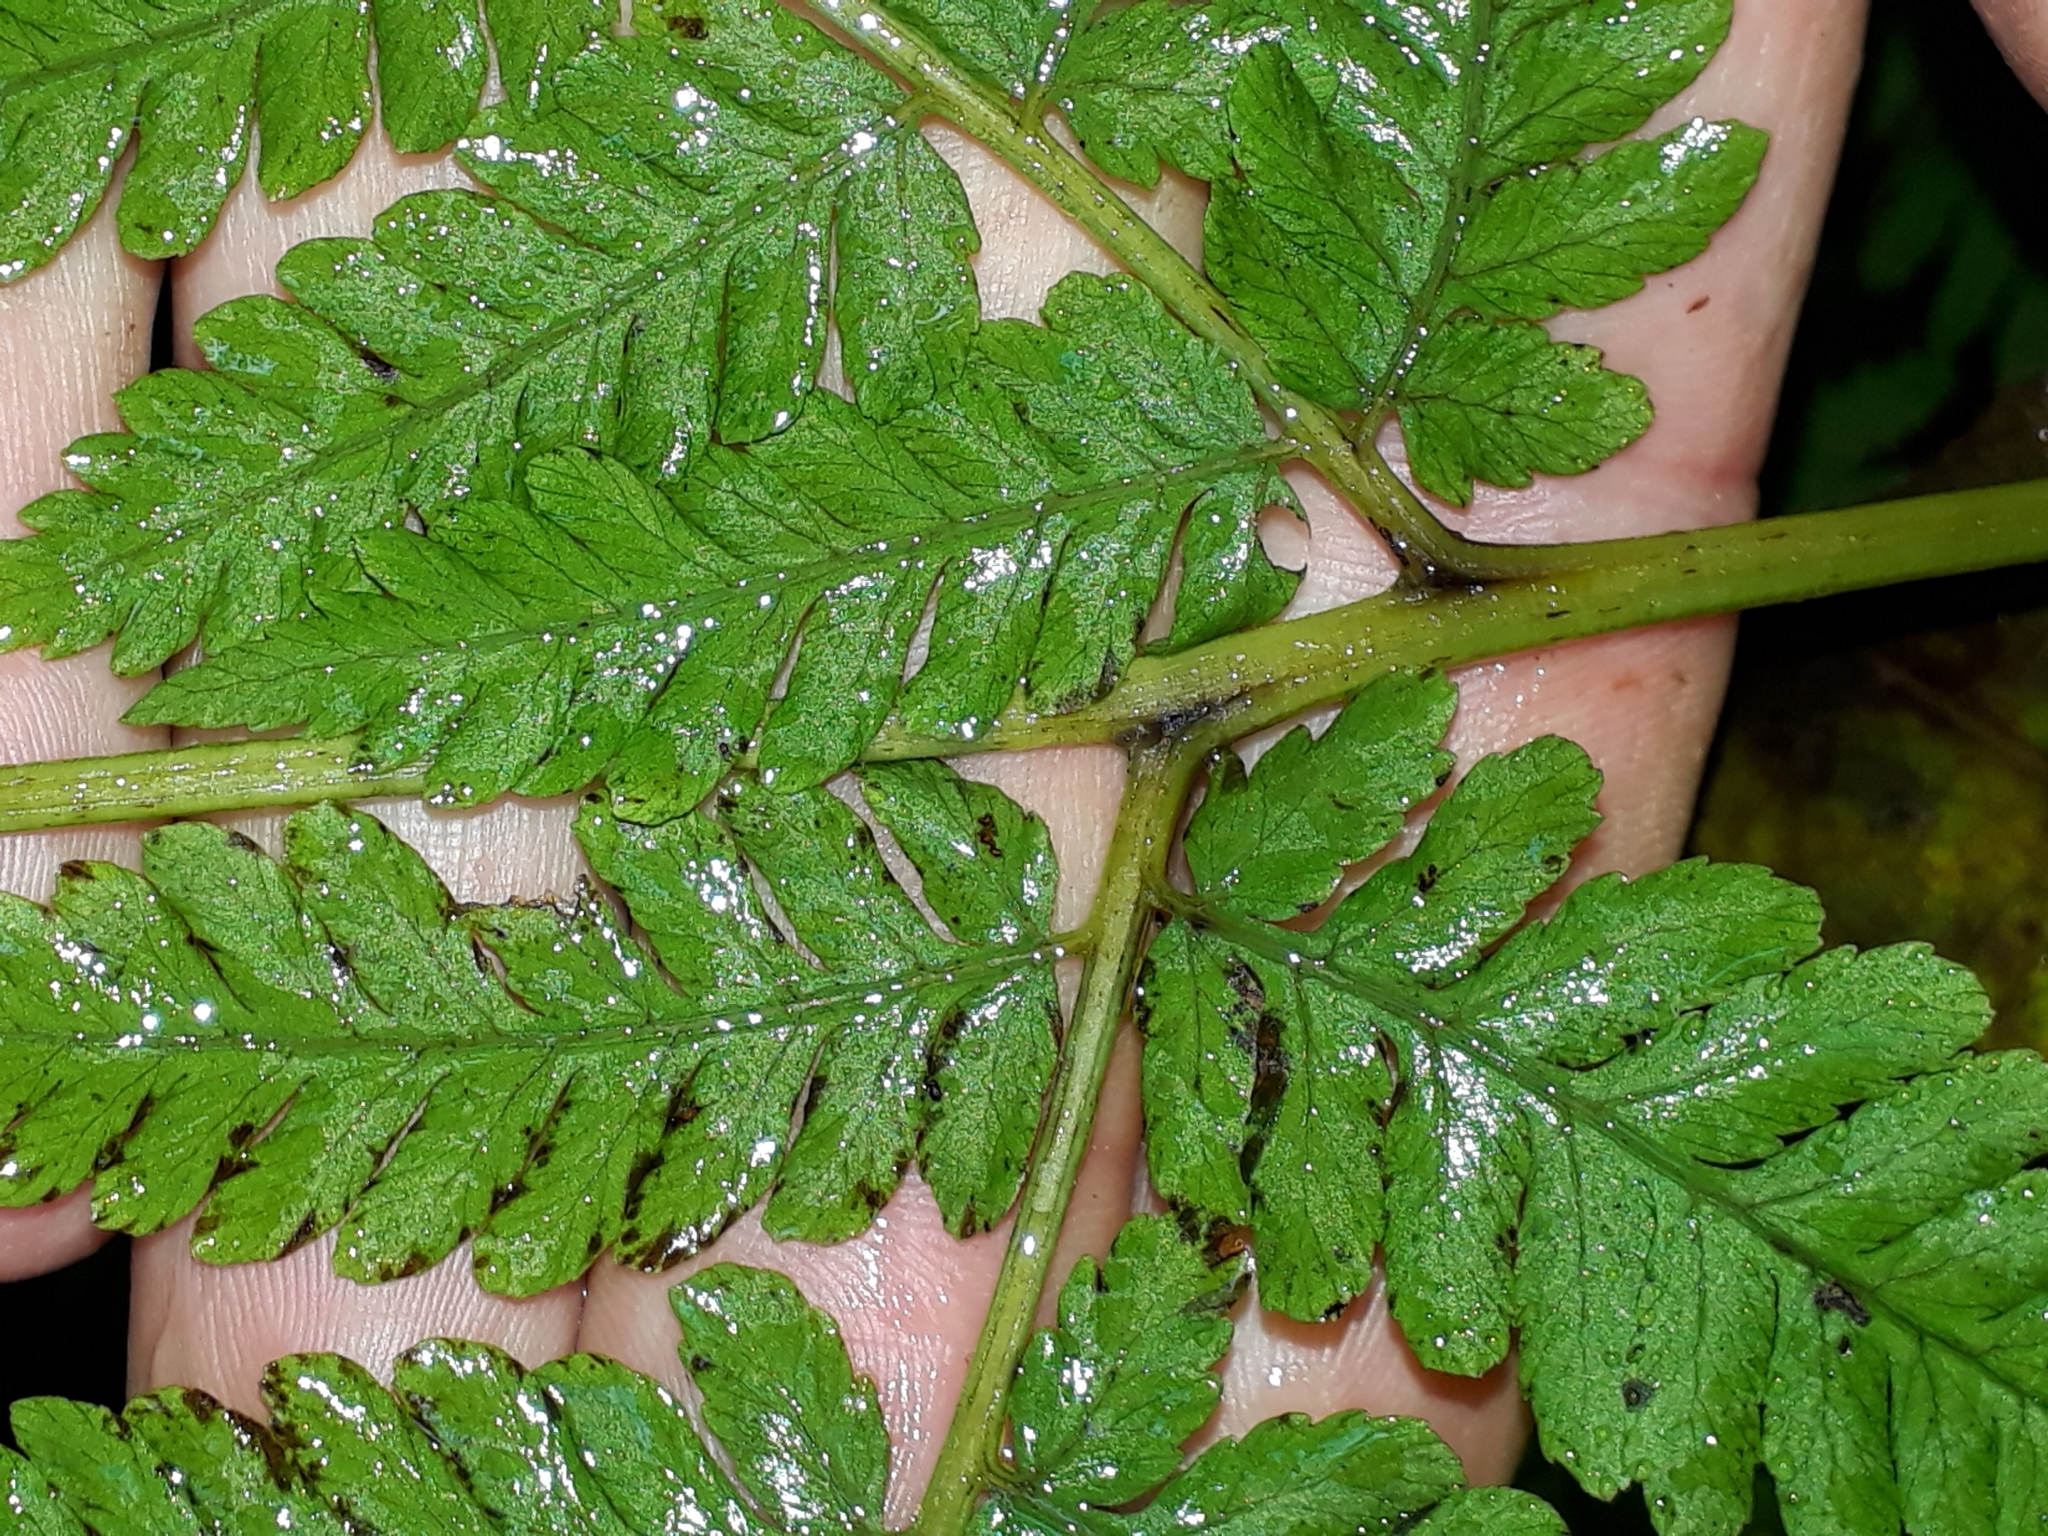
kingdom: Plantae
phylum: Tracheophyta
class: Polypodiopsida
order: Polypodiales
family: Athyriaceae
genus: Diplazium
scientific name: Diplazium australe
